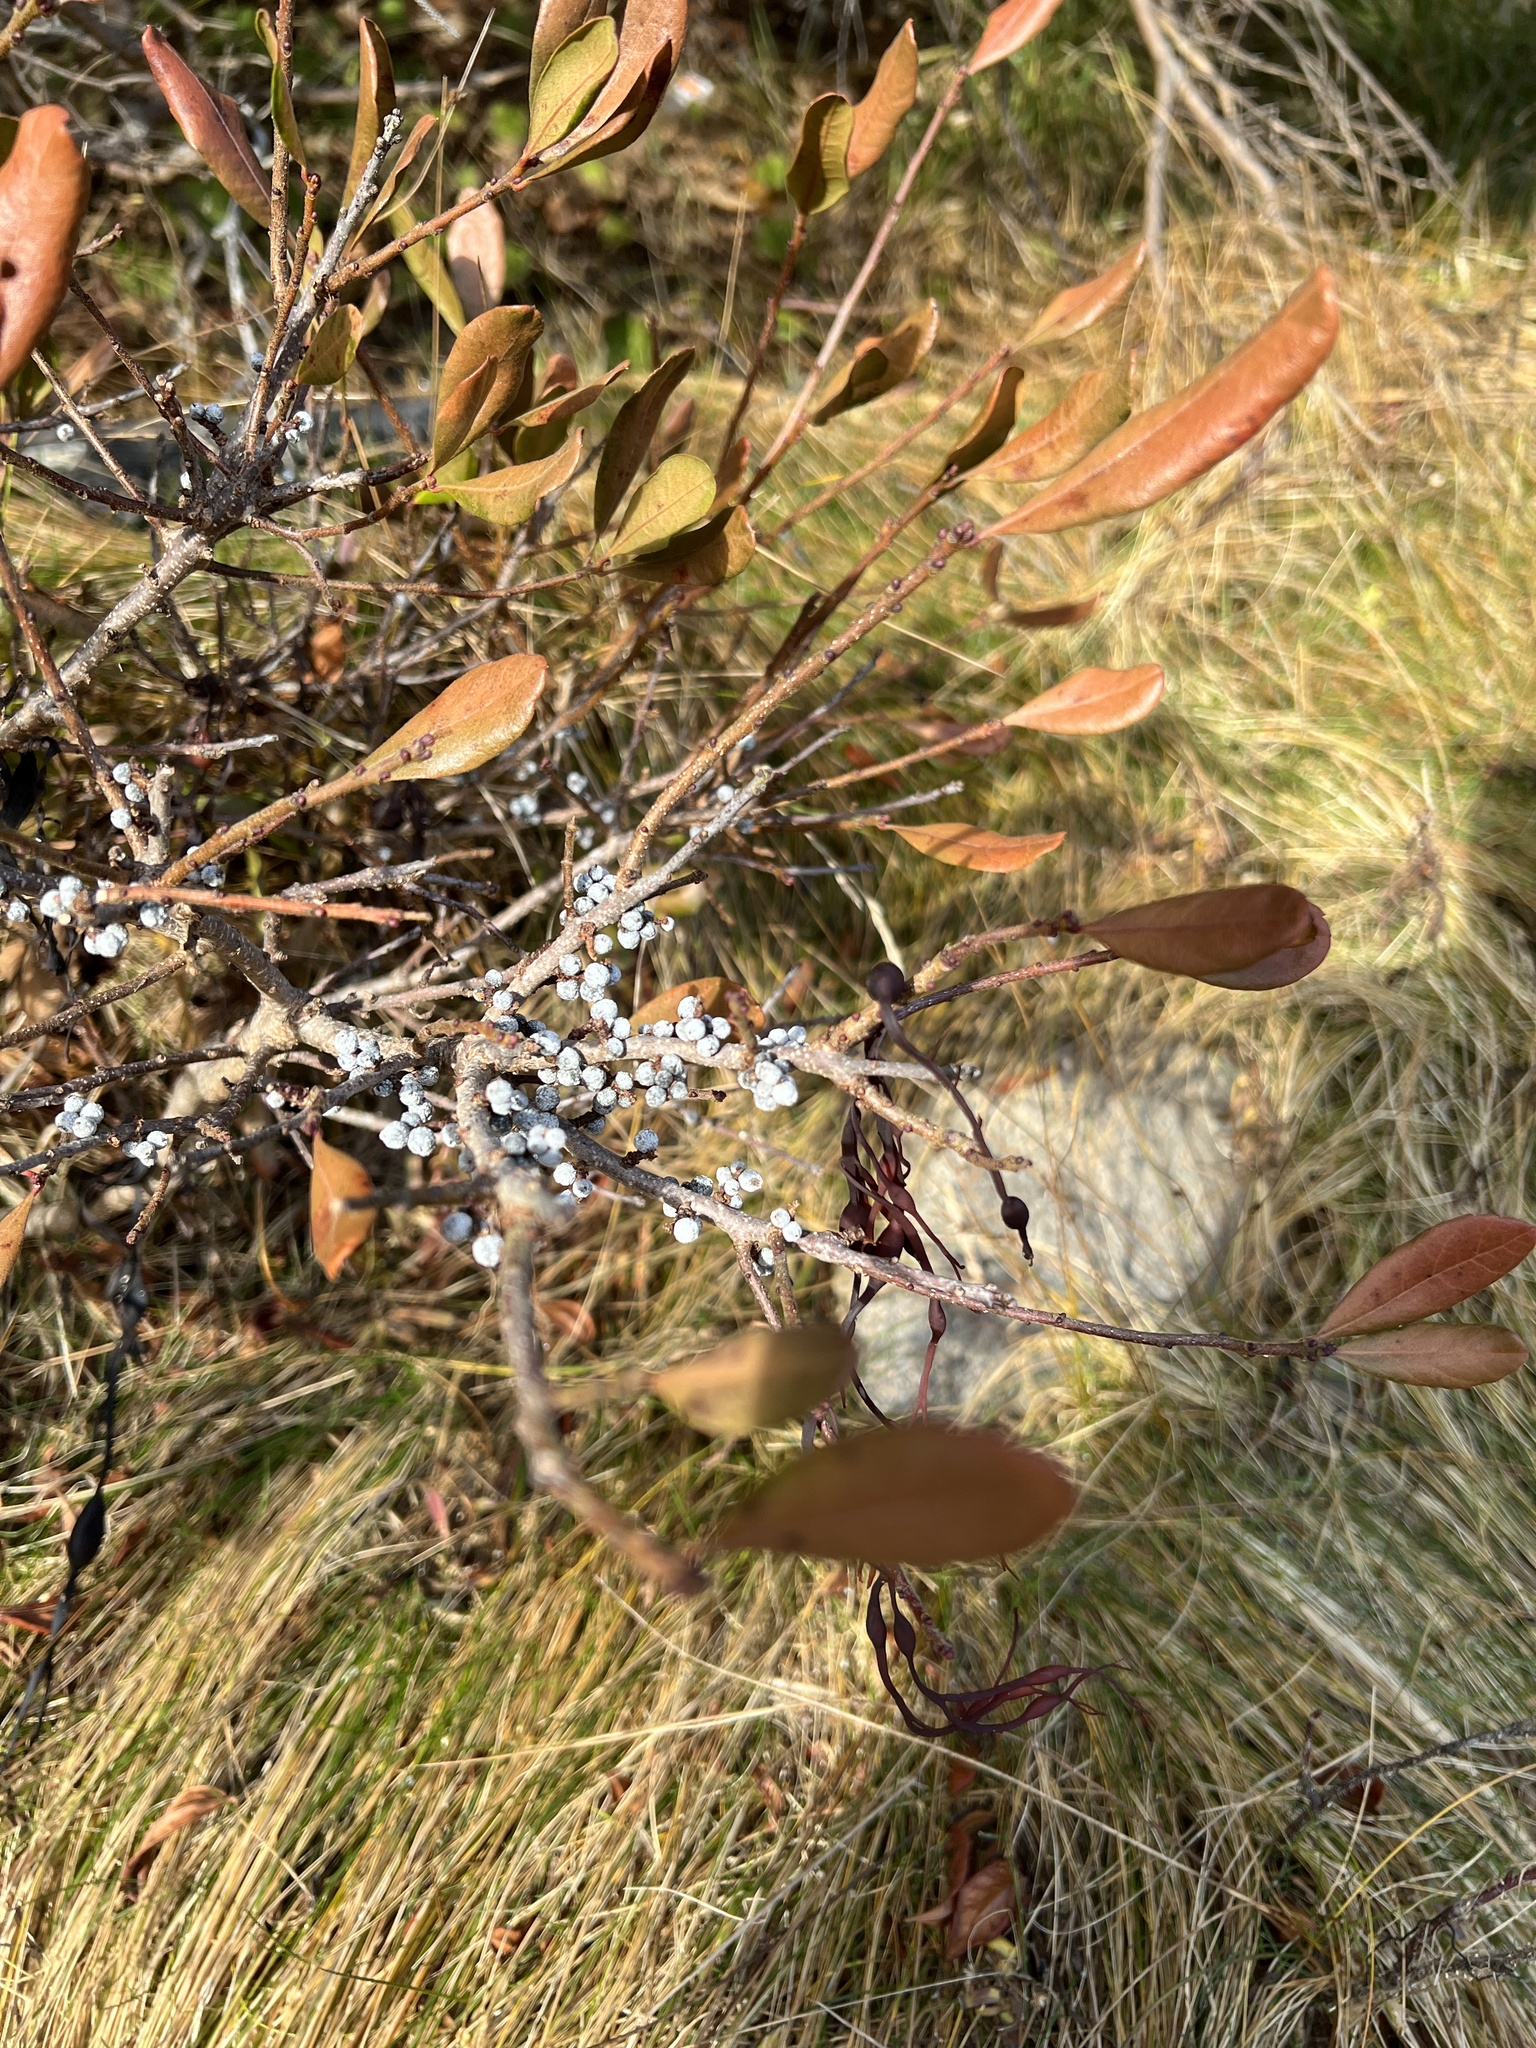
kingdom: Plantae
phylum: Tracheophyta
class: Magnoliopsida
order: Fagales
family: Myricaceae
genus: Morella
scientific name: Morella pensylvanica
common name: Northern bayberry
